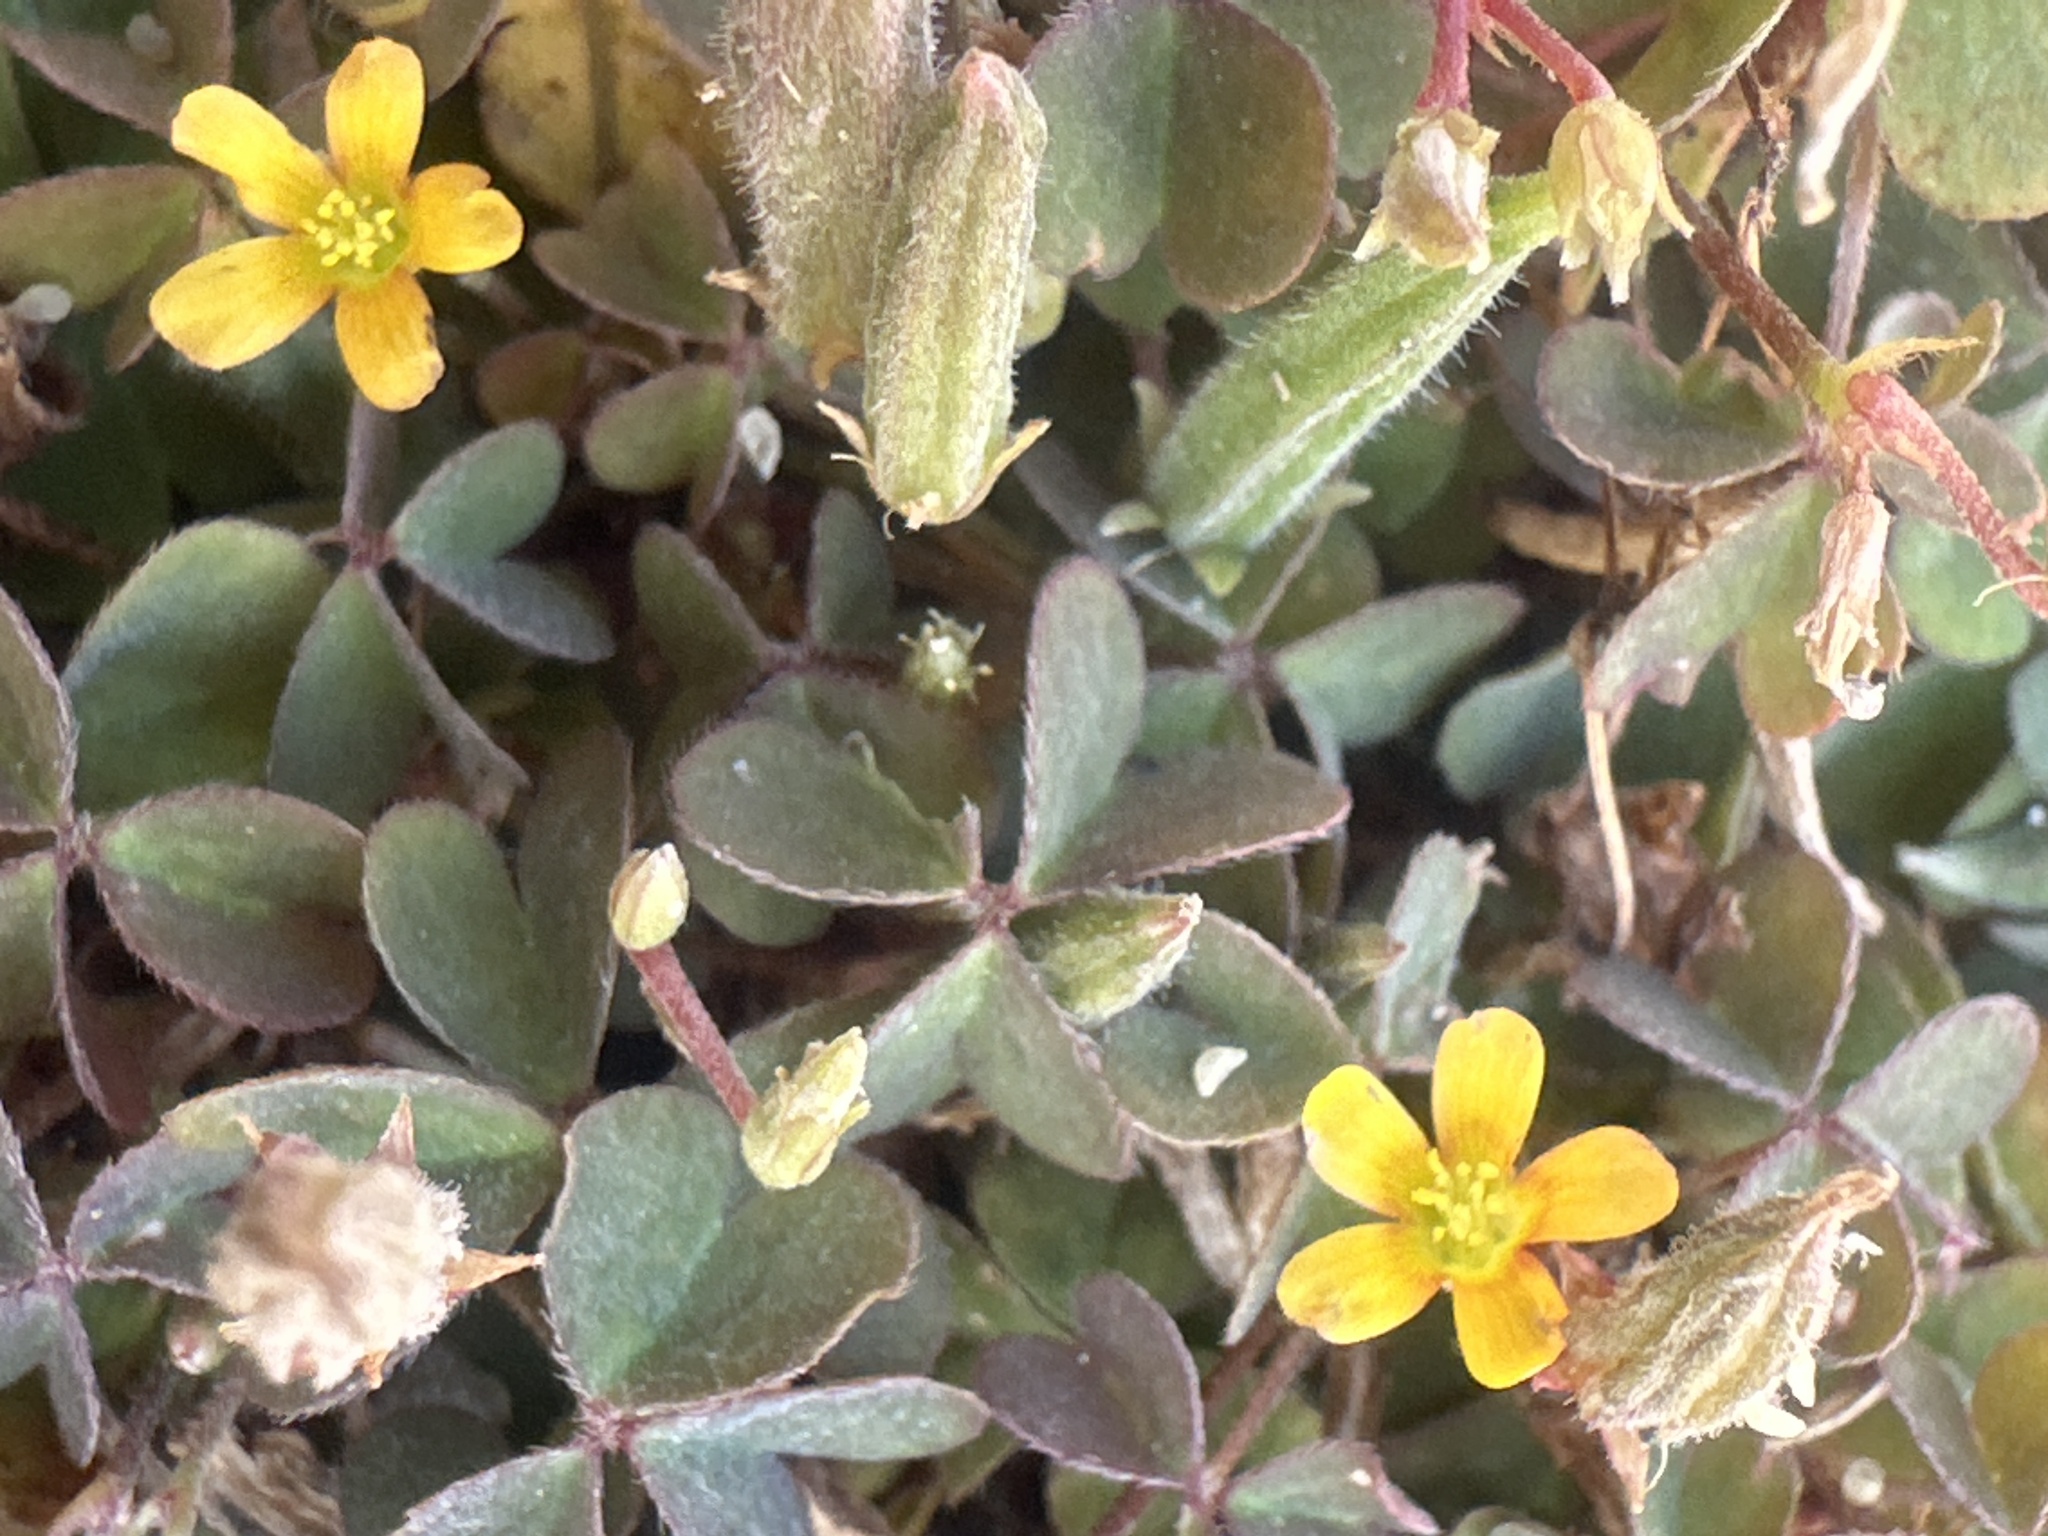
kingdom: Plantae
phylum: Tracheophyta
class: Magnoliopsida
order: Oxalidales
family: Oxalidaceae
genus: Oxalis
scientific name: Oxalis corniculata
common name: Procumbent yellow-sorrel
